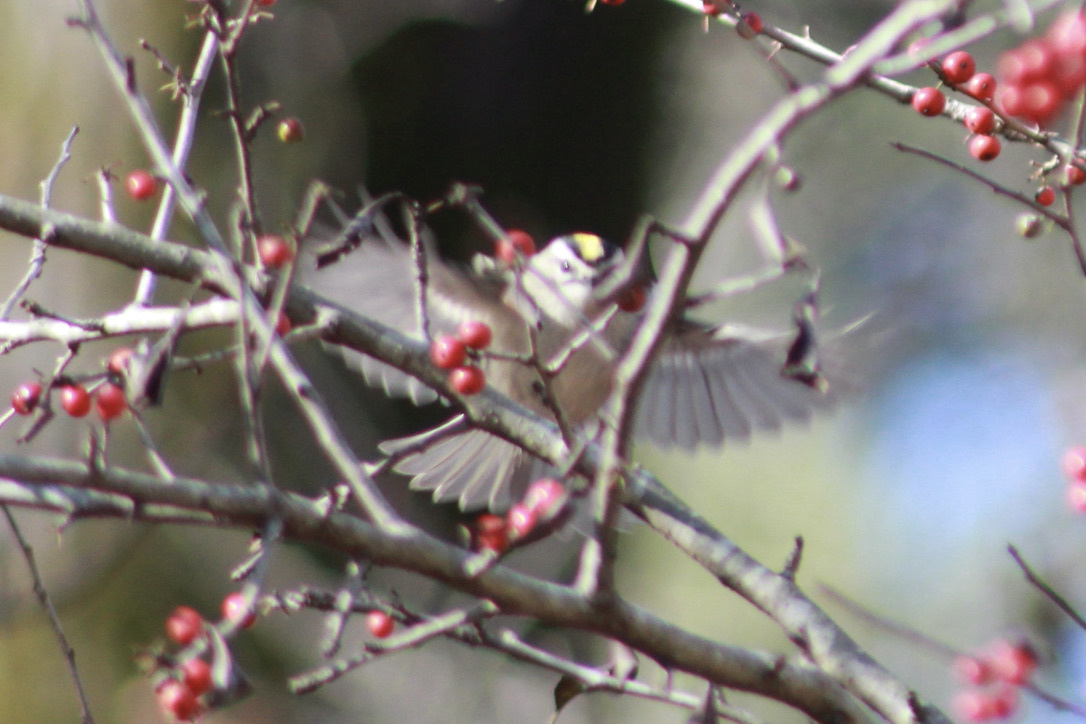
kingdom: Animalia
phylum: Chordata
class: Aves
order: Passeriformes
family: Regulidae
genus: Regulus
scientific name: Regulus satrapa
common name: Golden-crowned kinglet
